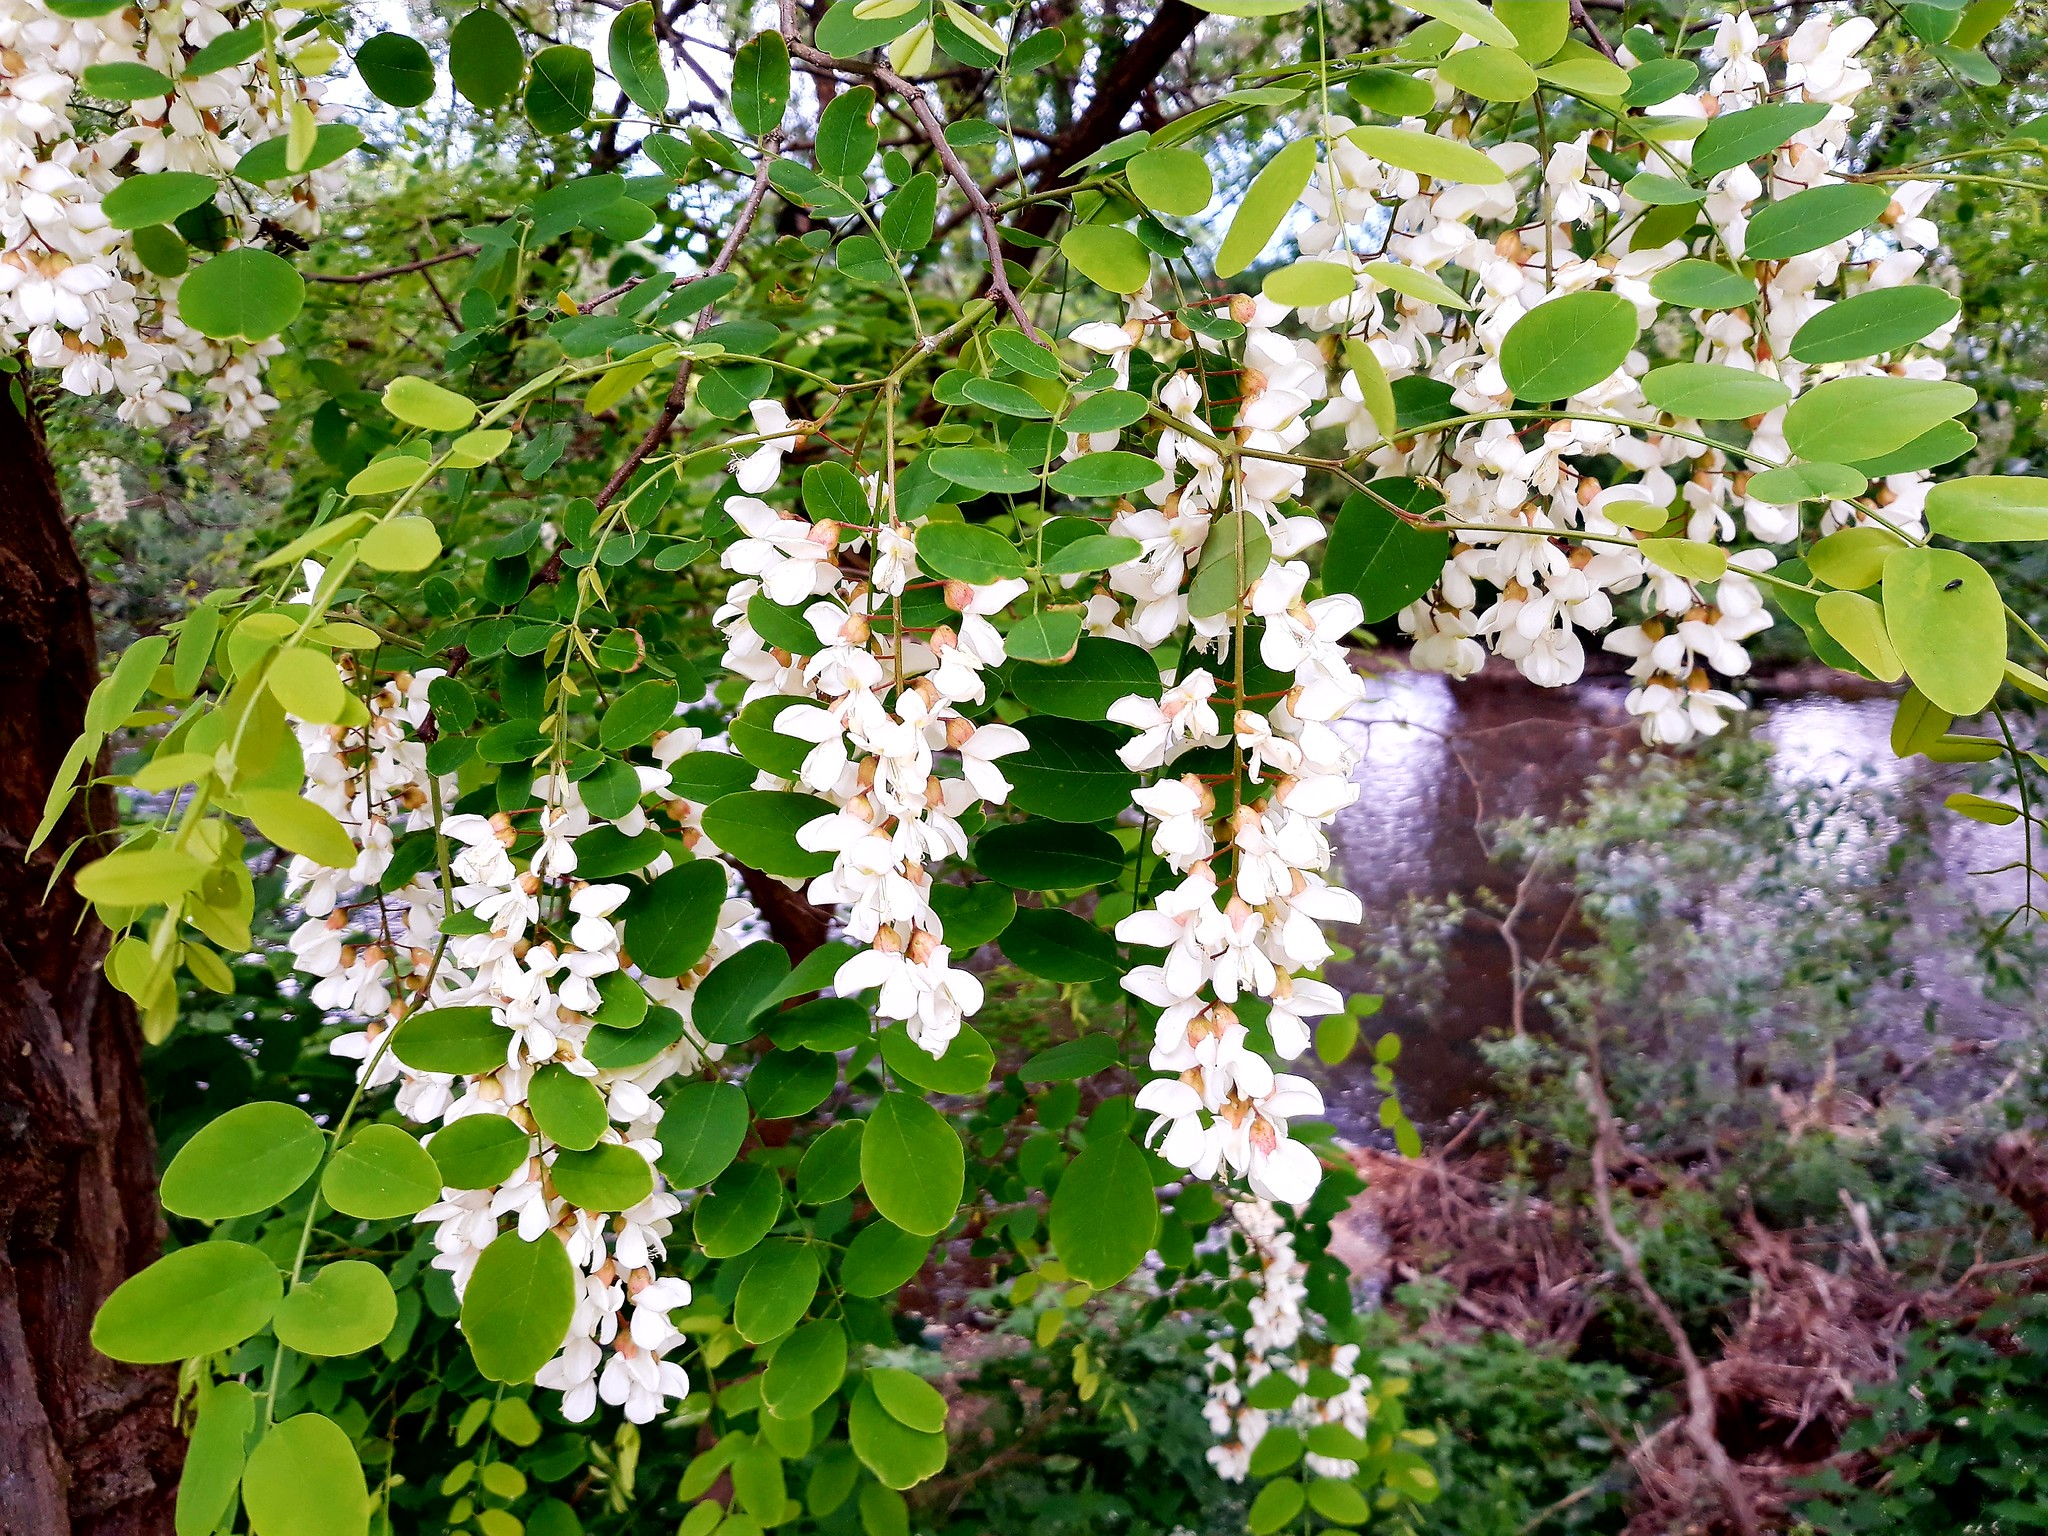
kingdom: Plantae
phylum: Tracheophyta
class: Magnoliopsida
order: Fabales
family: Fabaceae
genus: Robinia
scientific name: Robinia pseudoacacia
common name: Black locust
